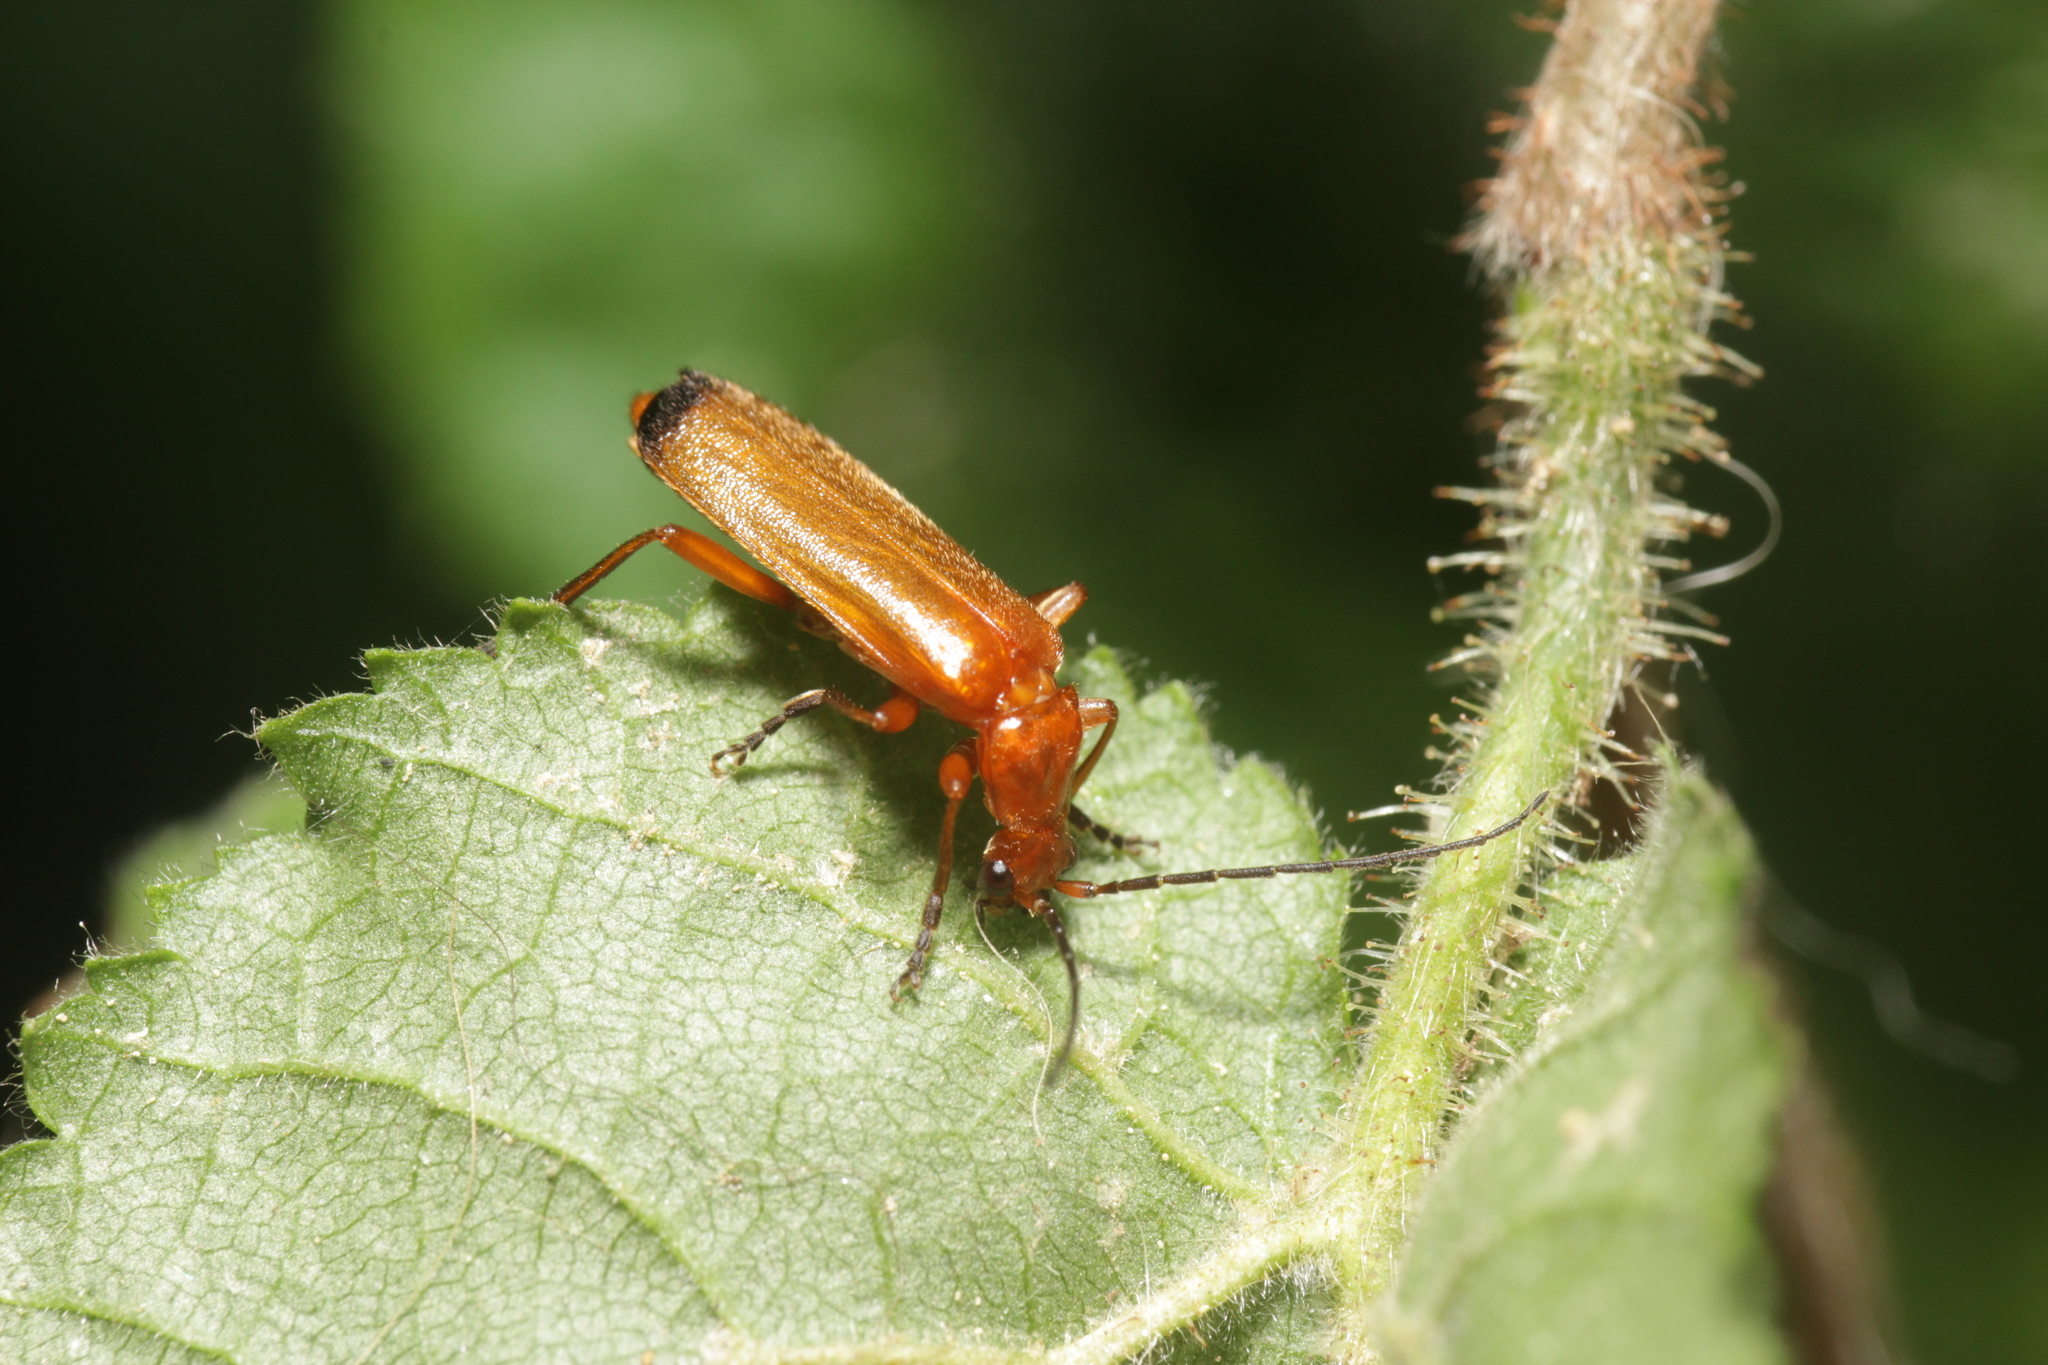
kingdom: Animalia
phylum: Arthropoda
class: Insecta
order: Coleoptera
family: Cantharidae
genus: Rhagonycha
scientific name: Rhagonycha fulva
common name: Common red soldier beetle
